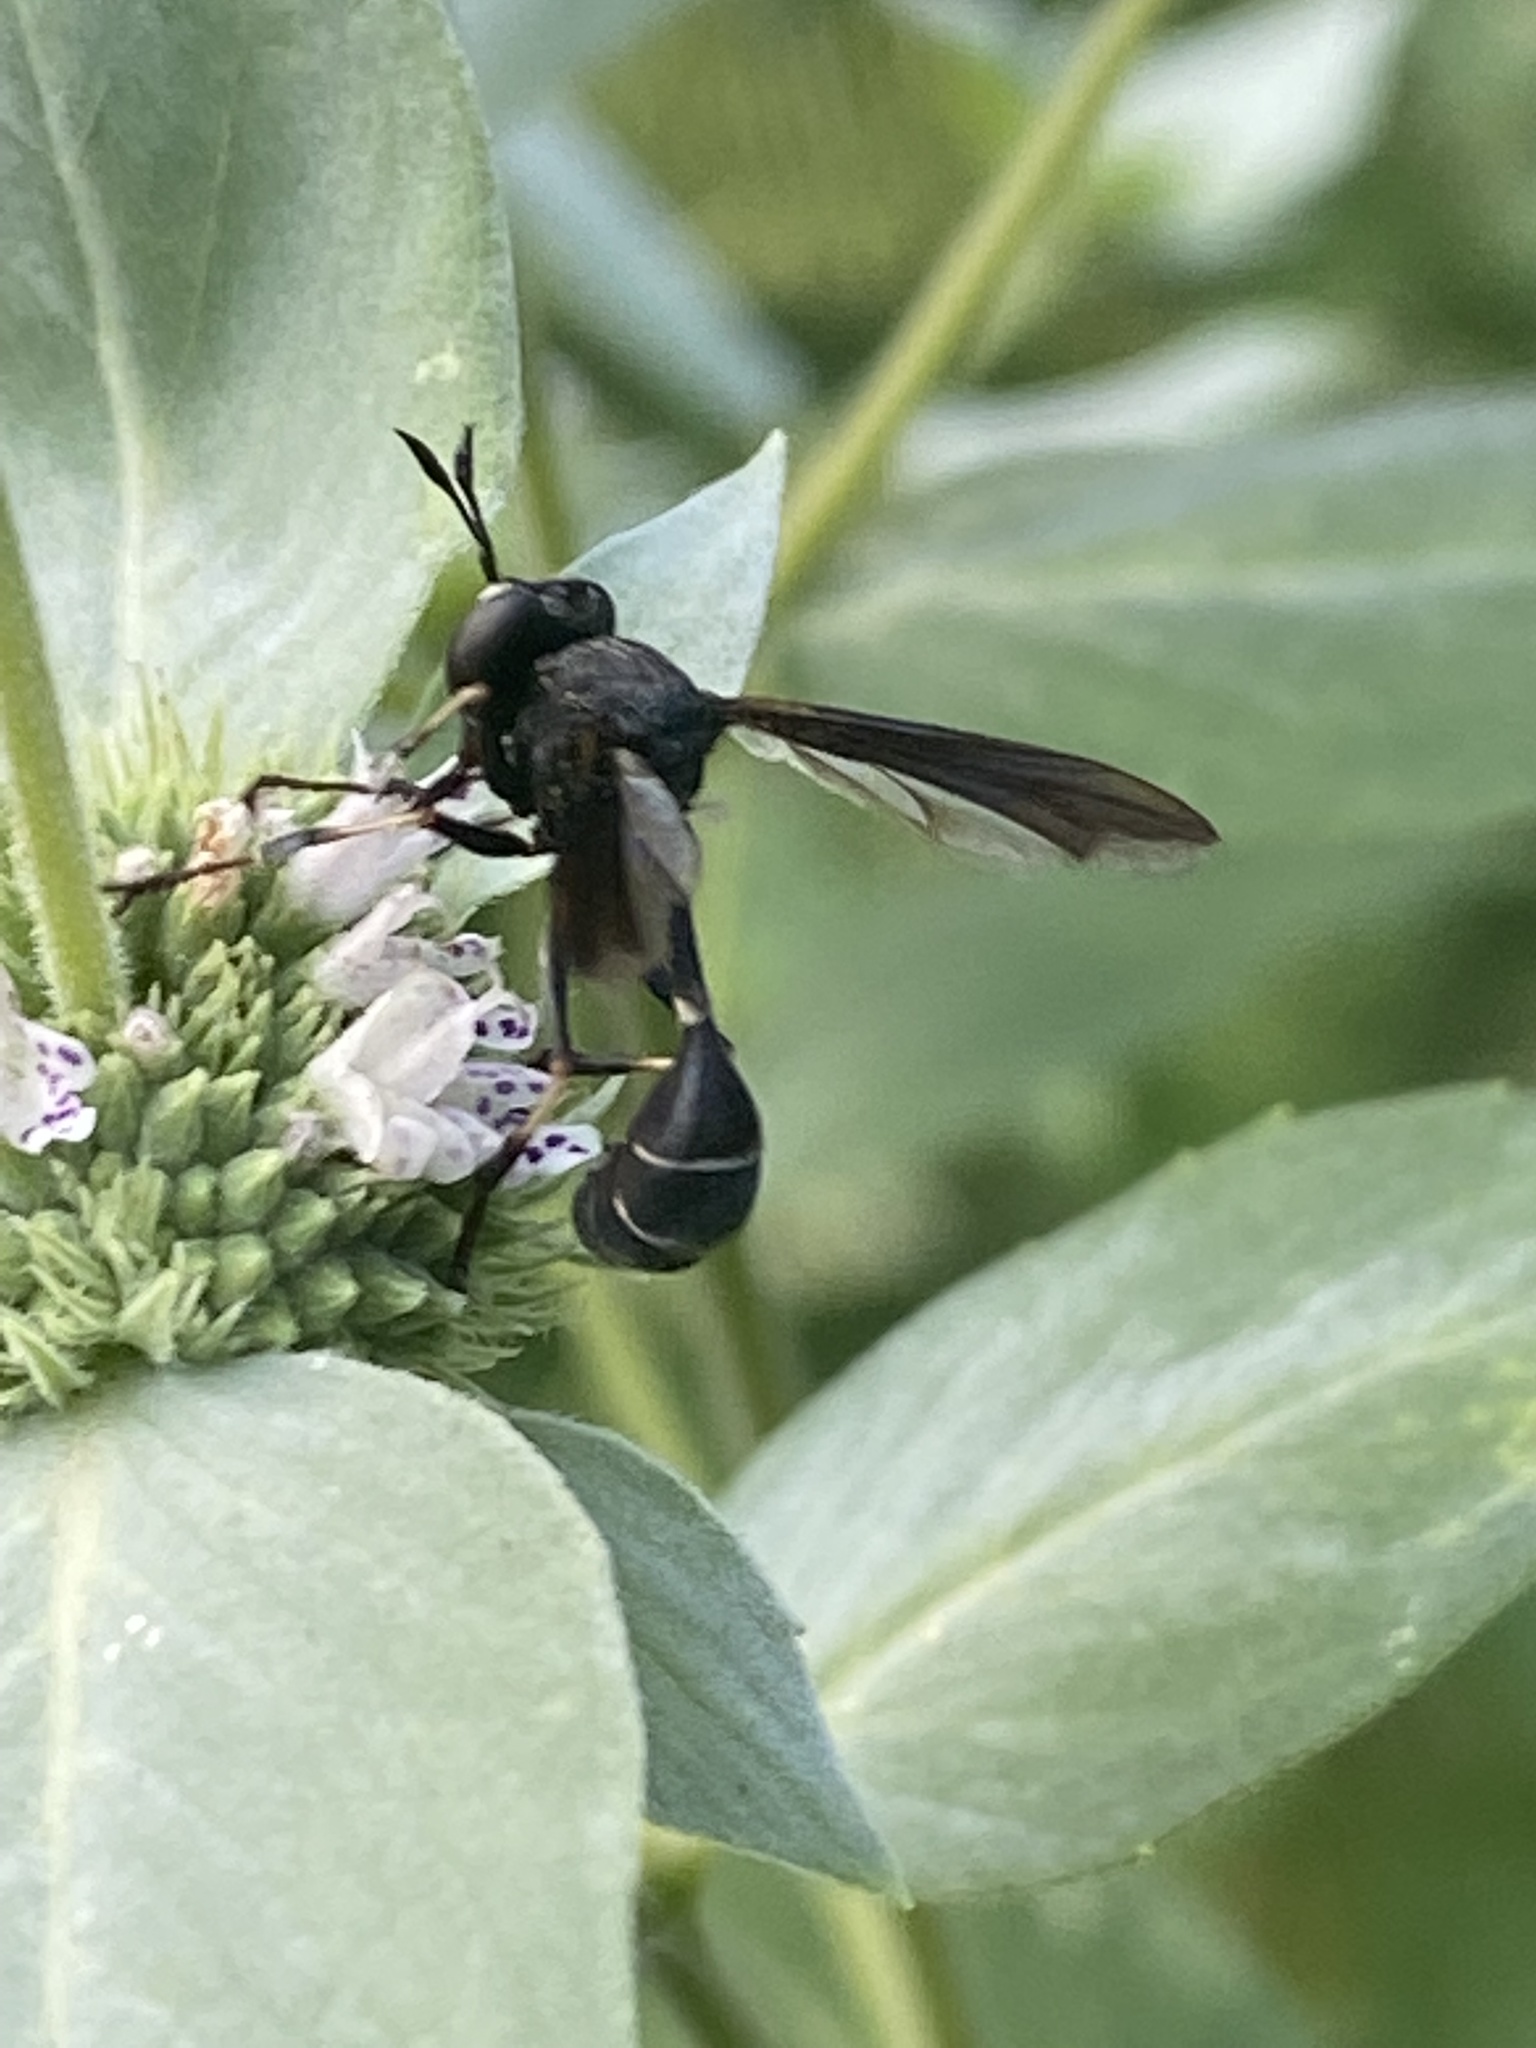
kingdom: Animalia
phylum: Arthropoda
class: Insecta
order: Diptera
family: Conopidae
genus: Physocephala
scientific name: Physocephala tibialis
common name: Common eastern physocephala
